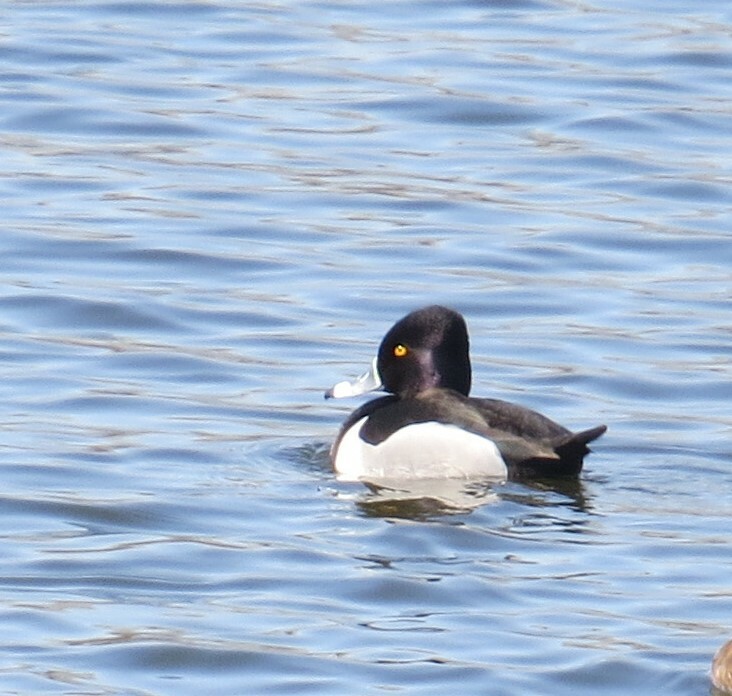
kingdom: Animalia
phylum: Chordata
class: Aves
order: Anseriformes
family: Anatidae
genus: Aythya
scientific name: Aythya collaris
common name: Ring-necked duck
